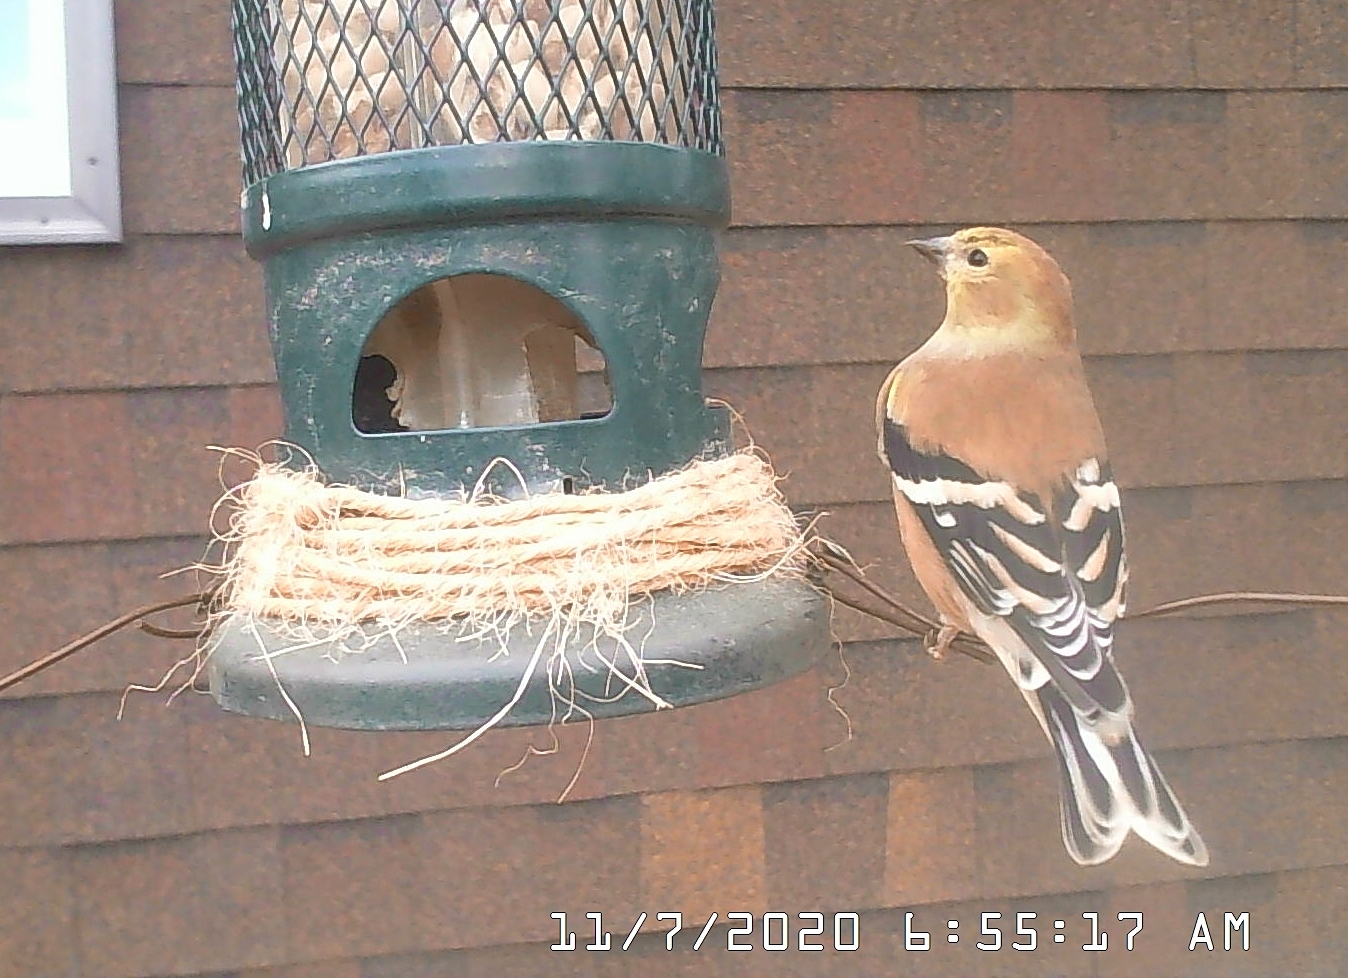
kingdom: Animalia
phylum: Chordata
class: Aves
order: Passeriformes
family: Fringillidae
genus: Spinus
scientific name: Spinus tristis
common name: American goldfinch
